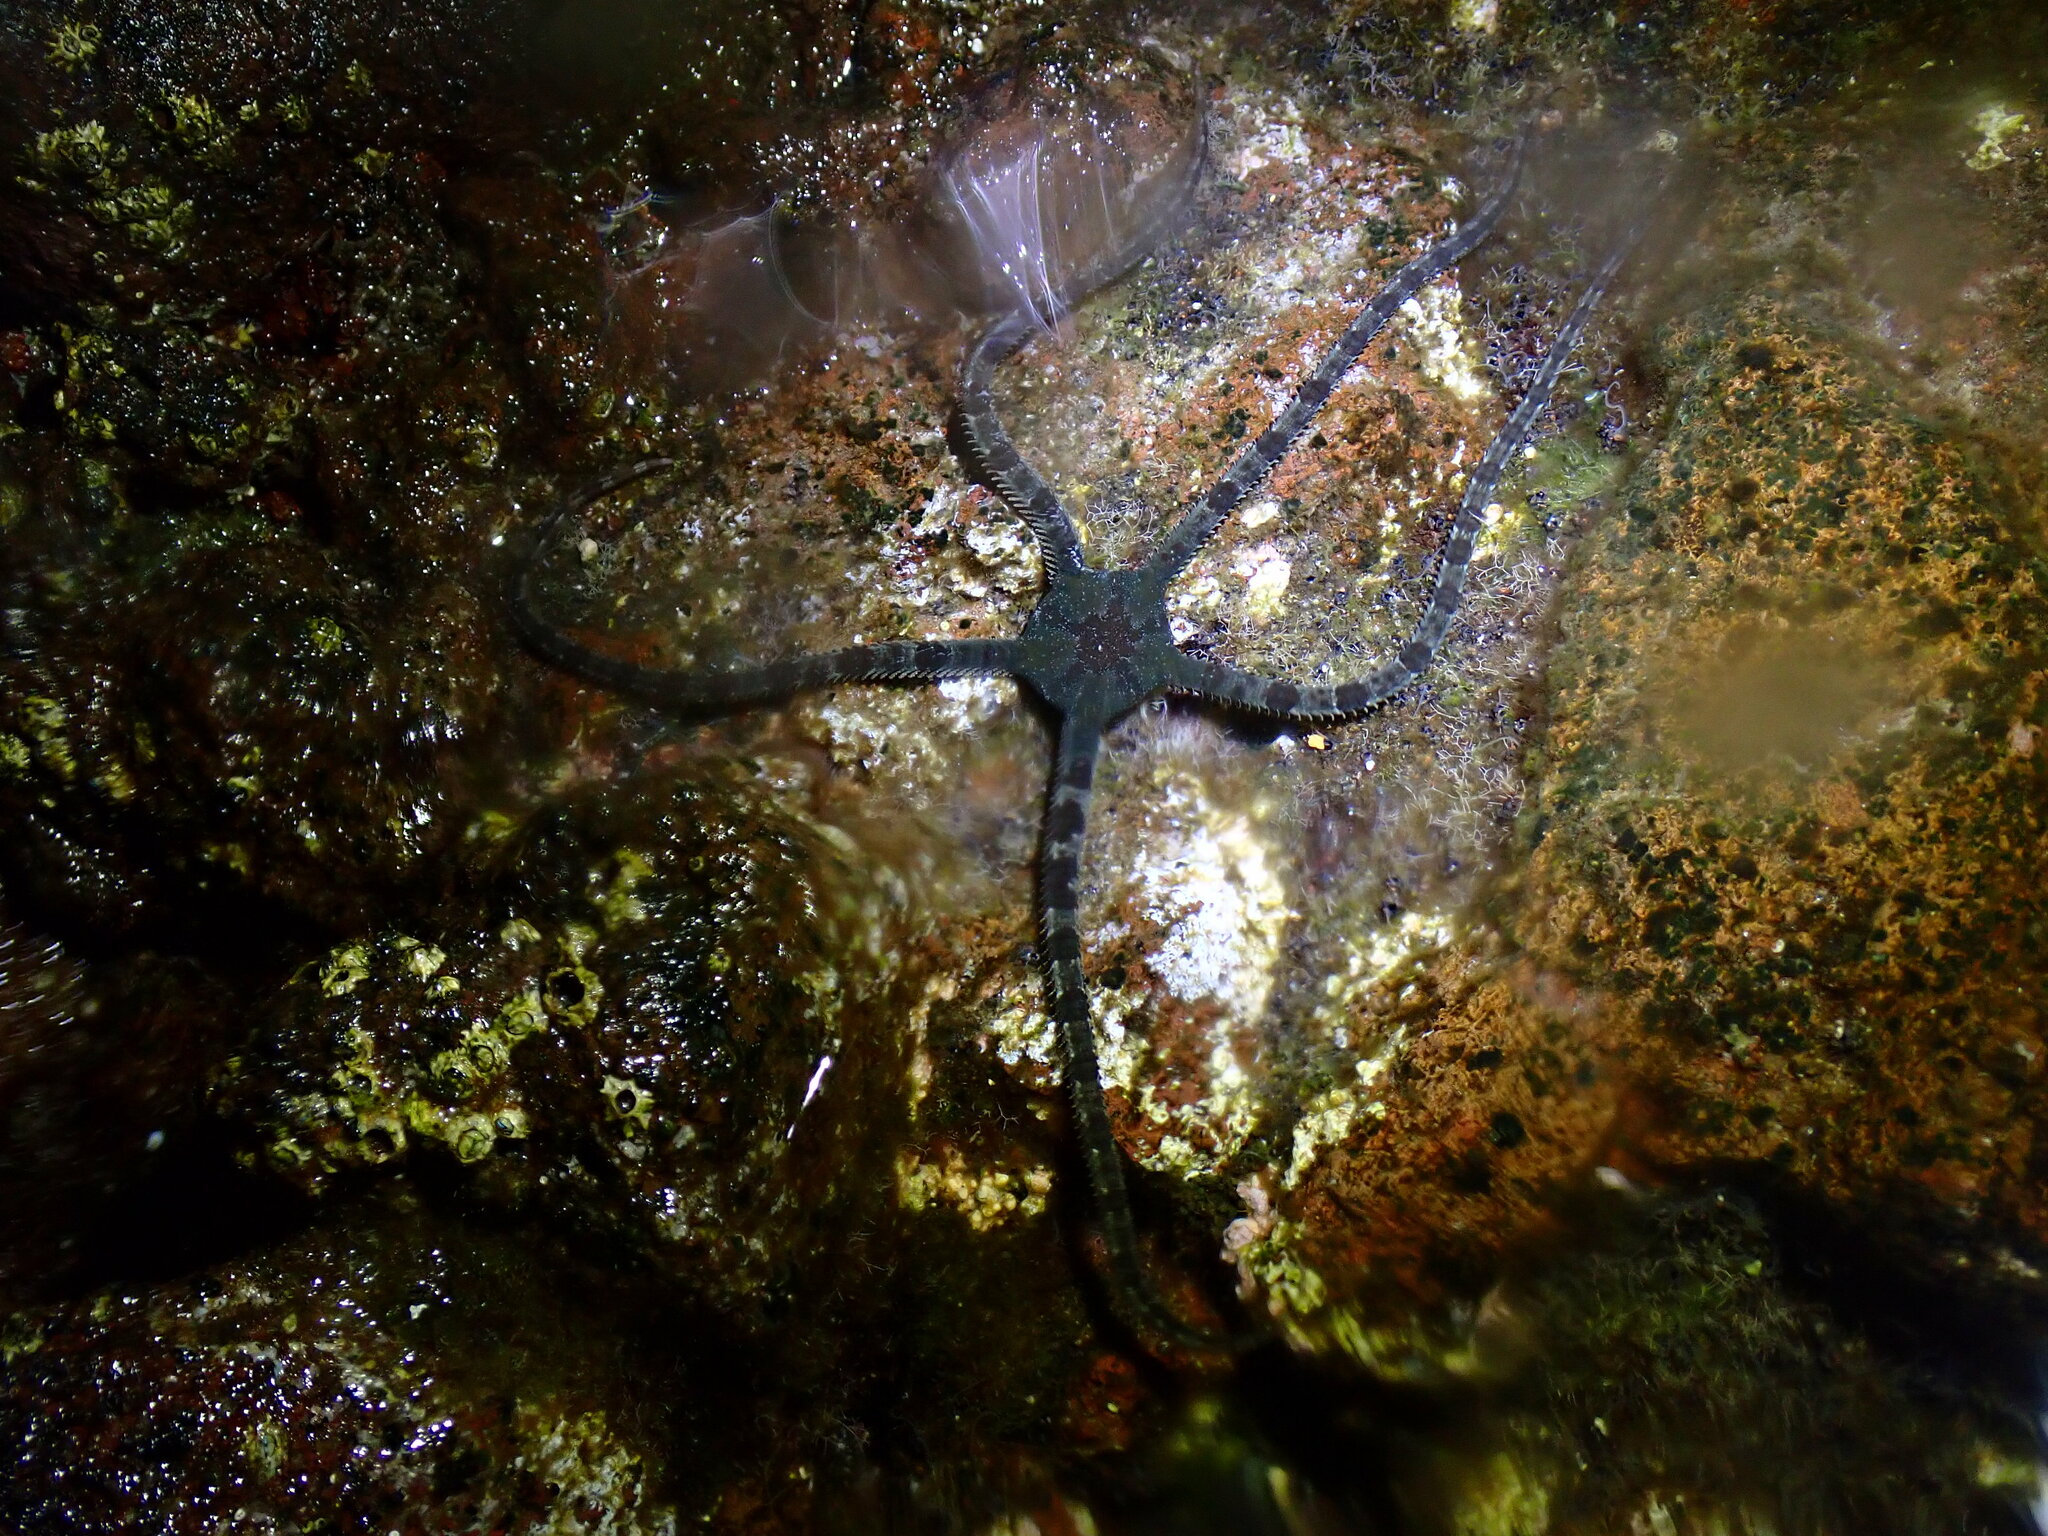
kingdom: Animalia
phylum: Echinodermata
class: Ophiuroidea
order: Ophiacanthida
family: Ophiodermatidae
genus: Ophioderma
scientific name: Ophioderma longicaudum
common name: Smooth brittle-star
